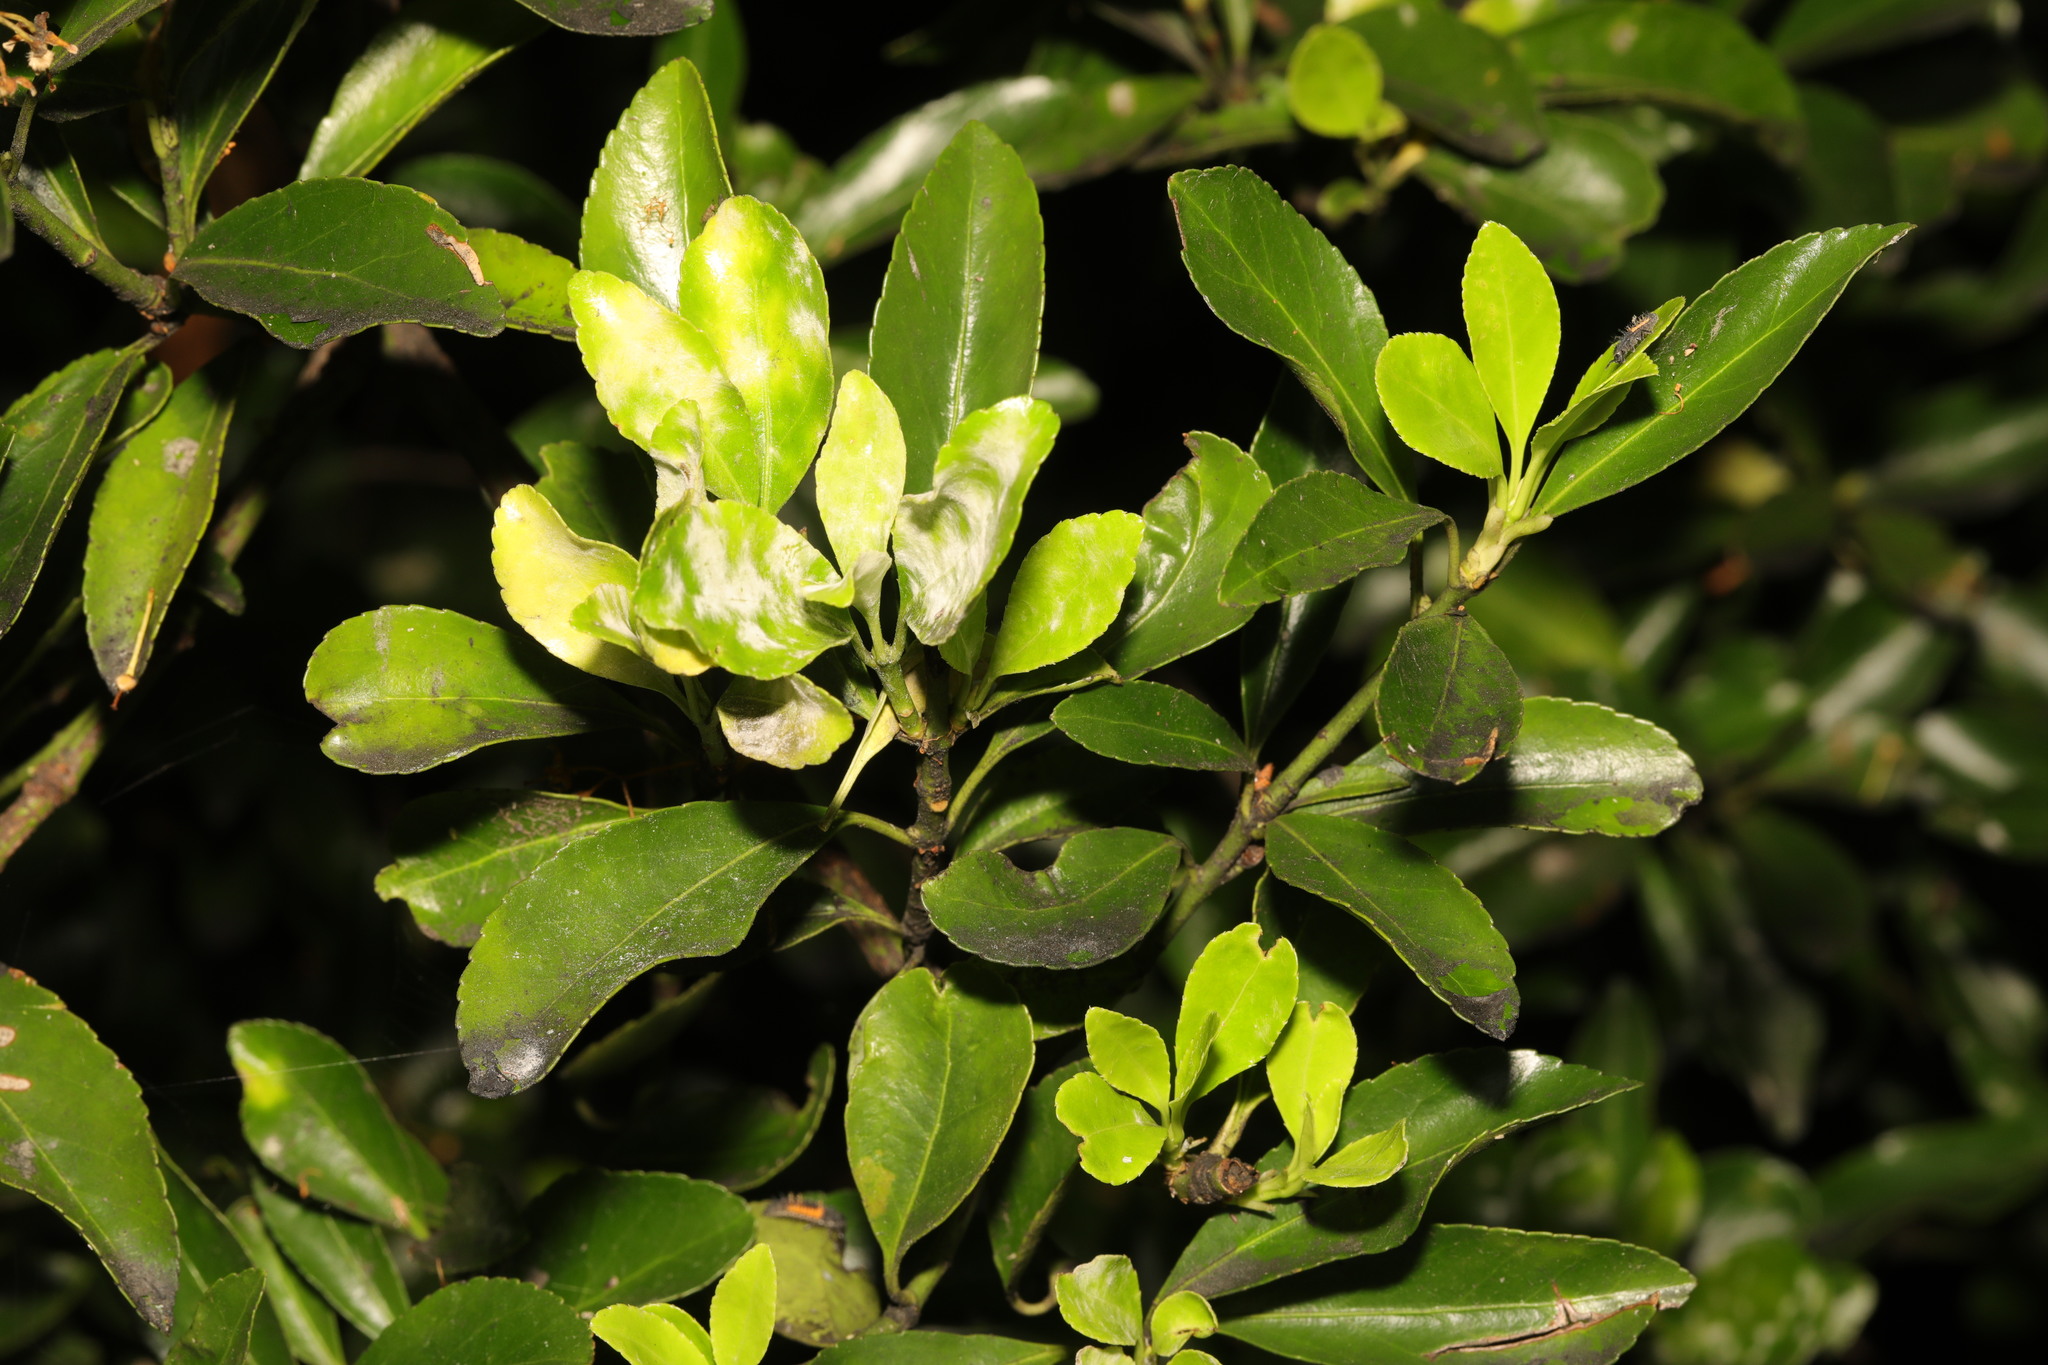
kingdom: Fungi
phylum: Ascomycota
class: Leotiomycetes
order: Helotiales
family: Erysiphaceae
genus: Erysiphe
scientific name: Erysiphe euonymicola
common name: Spindletree mildew
